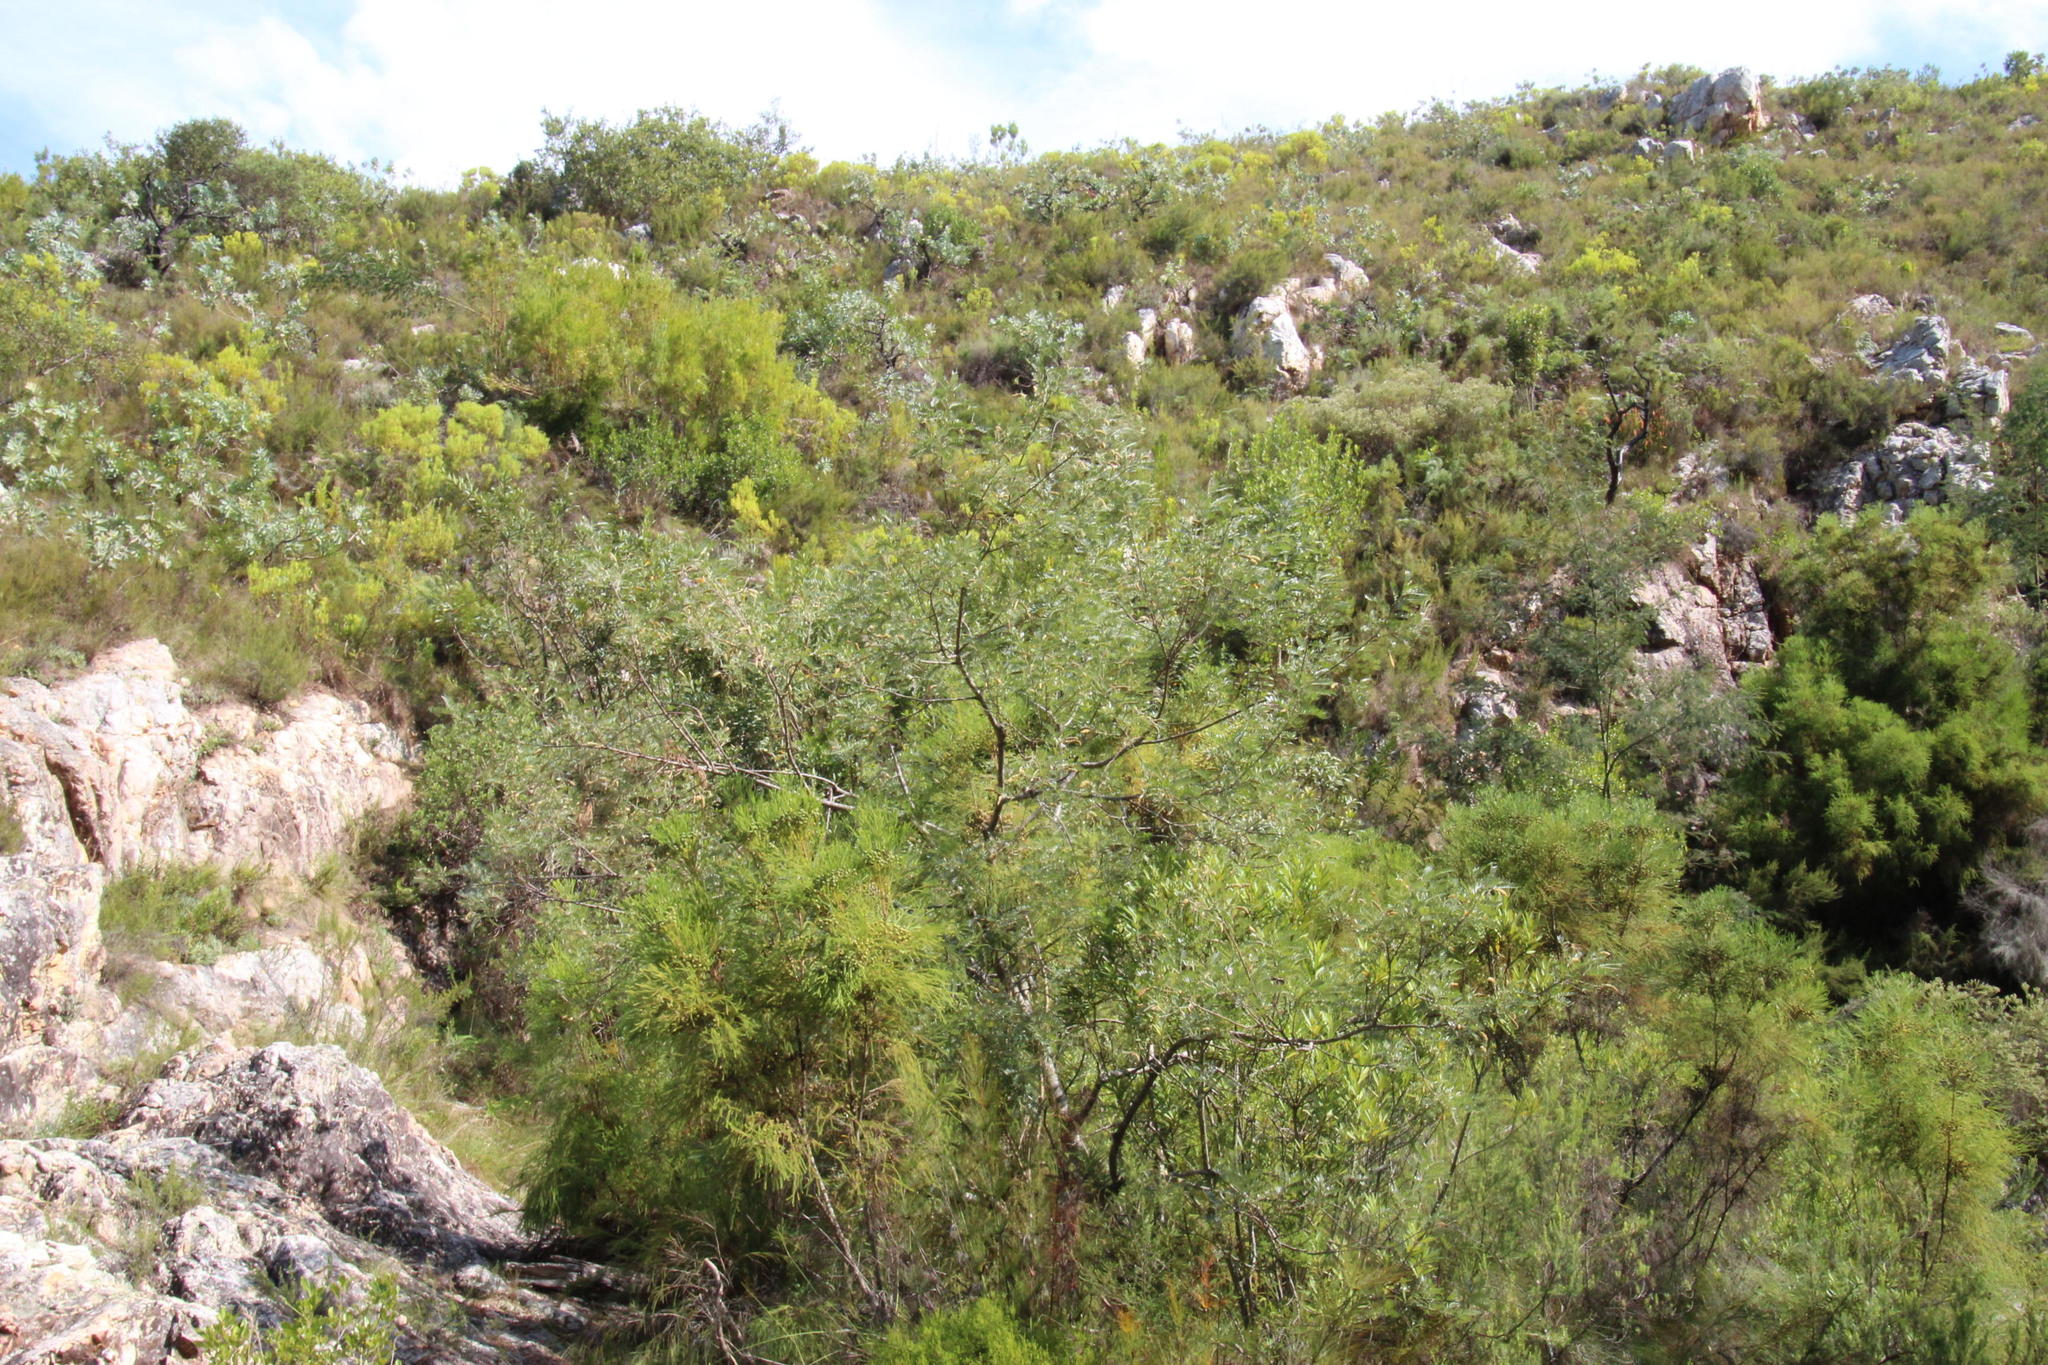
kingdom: Plantae
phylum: Tracheophyta
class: Magnoliopsida
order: Fabales
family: Fabaceae
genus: Virgilia
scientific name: Virgilia oroboides
